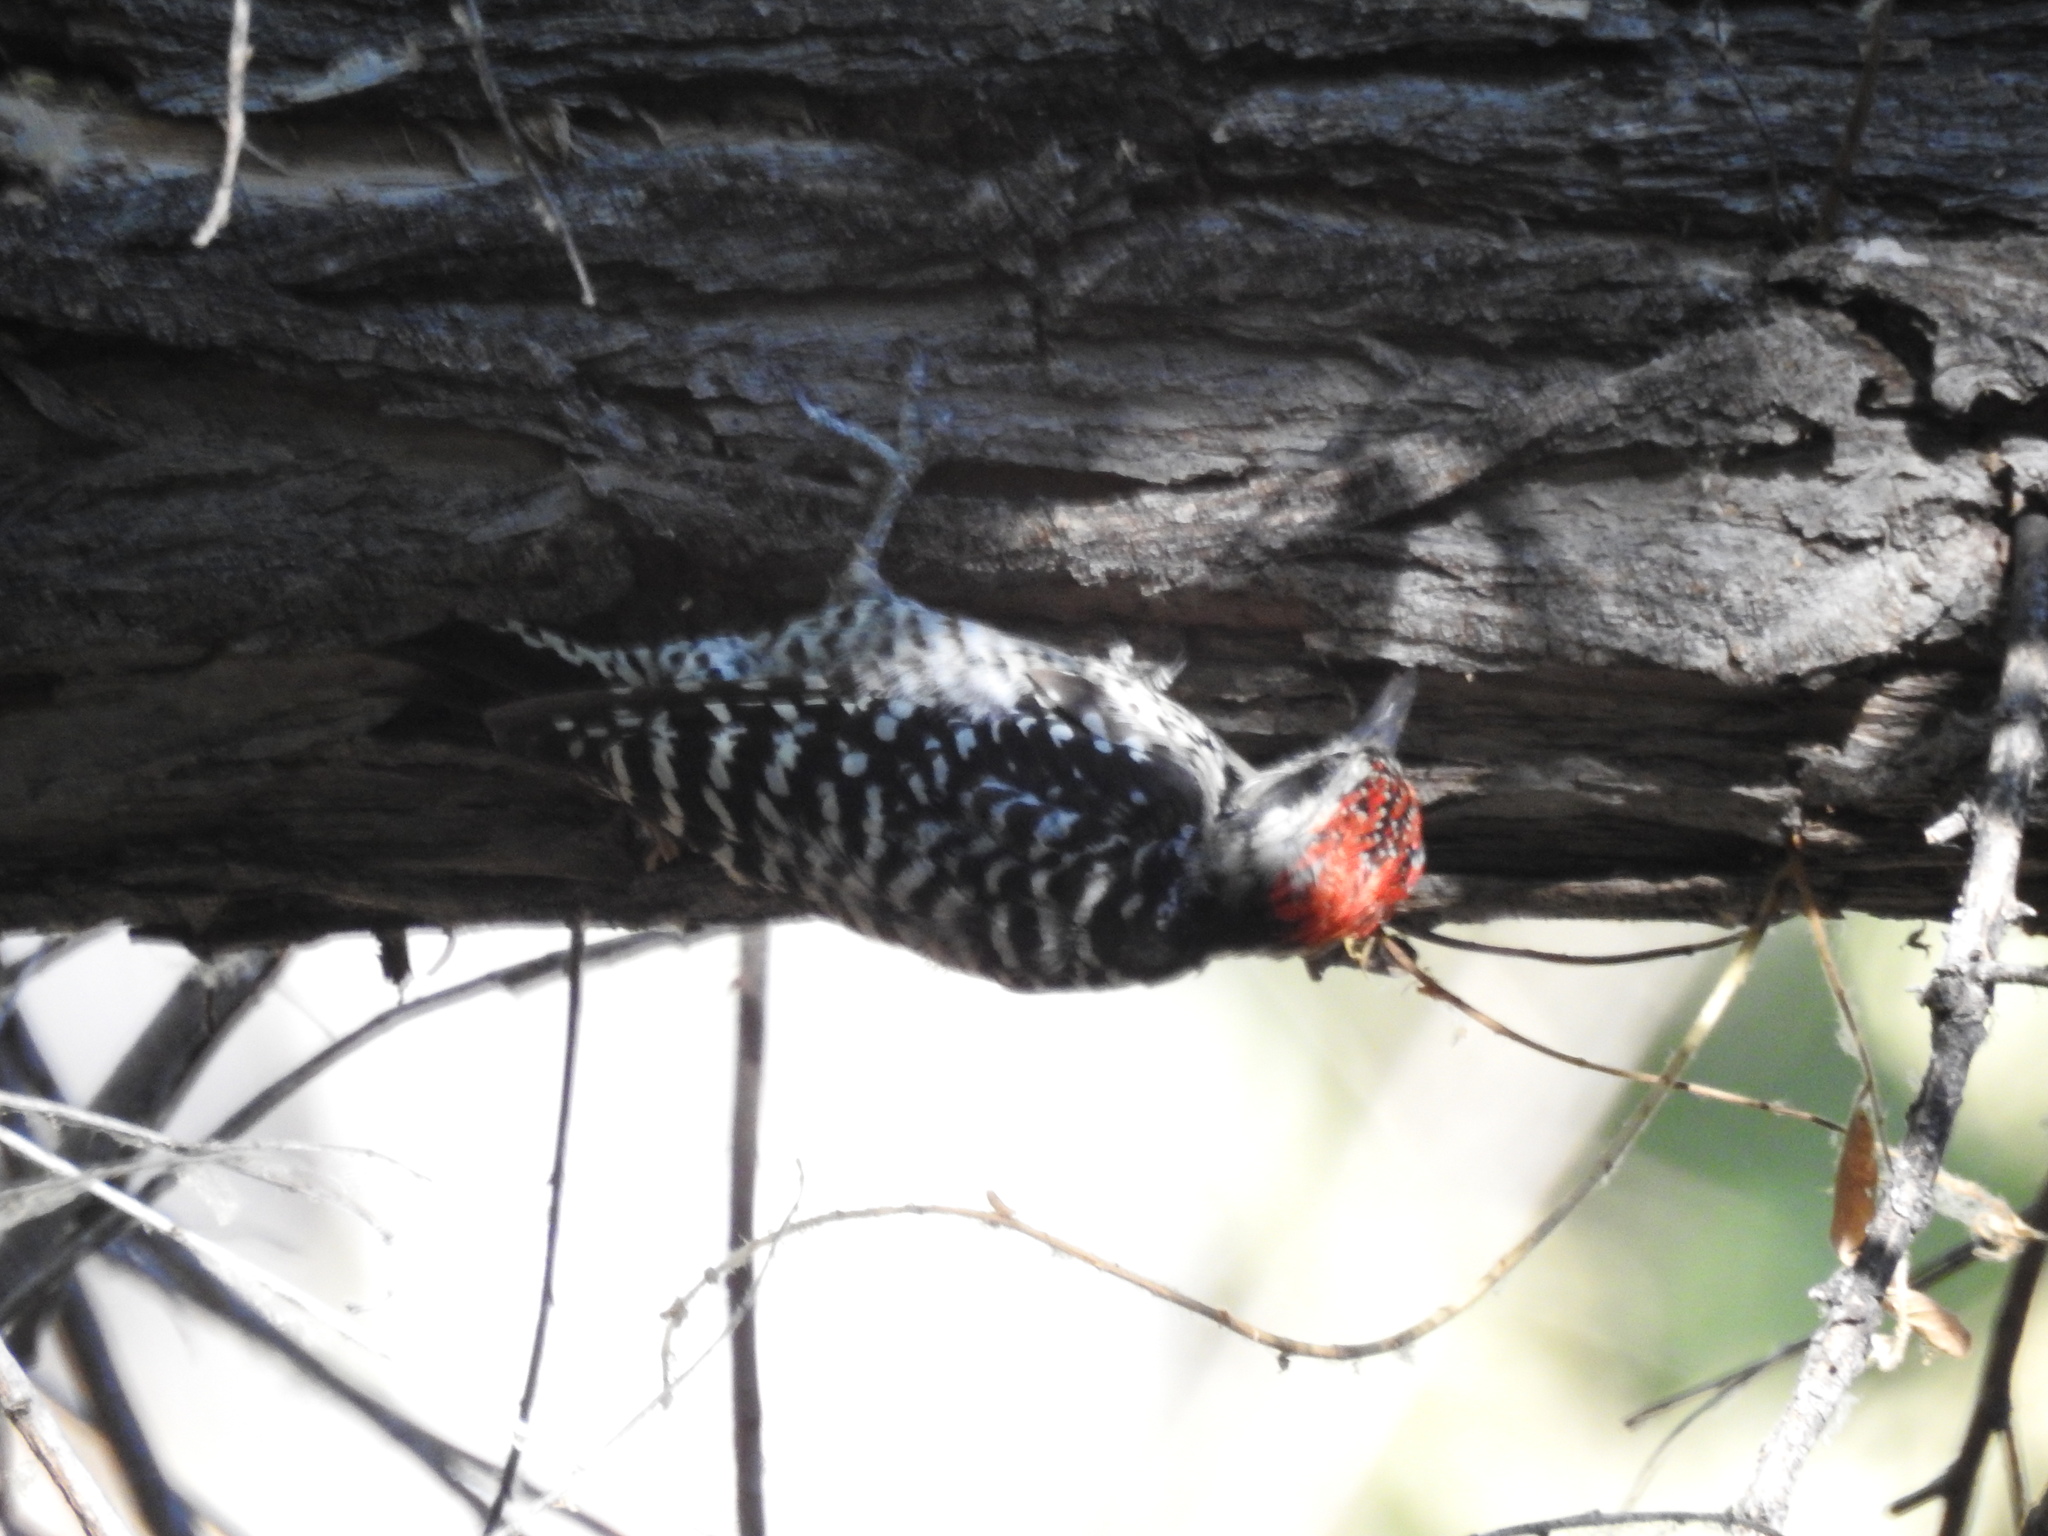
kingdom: Animalia
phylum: Chordata
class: Aves
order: Piciformes
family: Picidae
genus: Dryobates
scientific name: Dryobates scalaris
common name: Ladder-backed woodpecker
